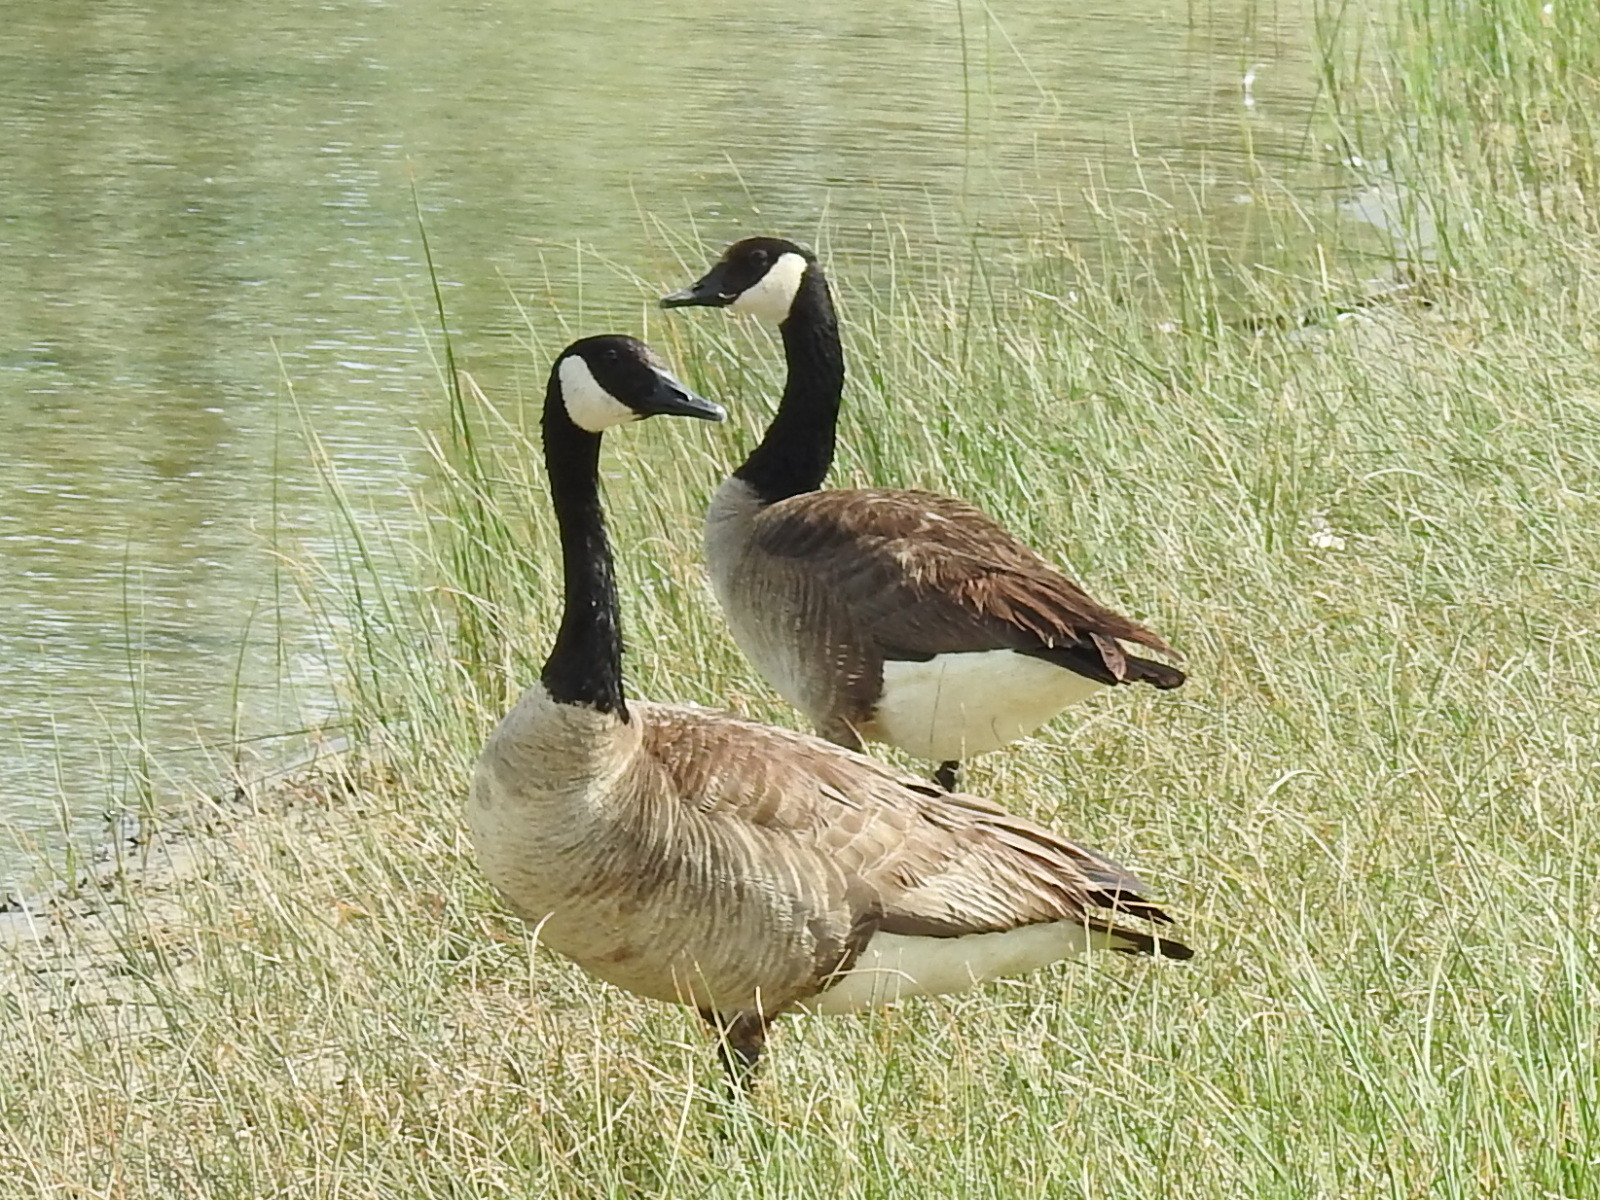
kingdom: Animalia
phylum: Chordata
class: Aves
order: Anseriformes
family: Anatidae
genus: Branta
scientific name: Branta canadensis
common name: Canada goose
